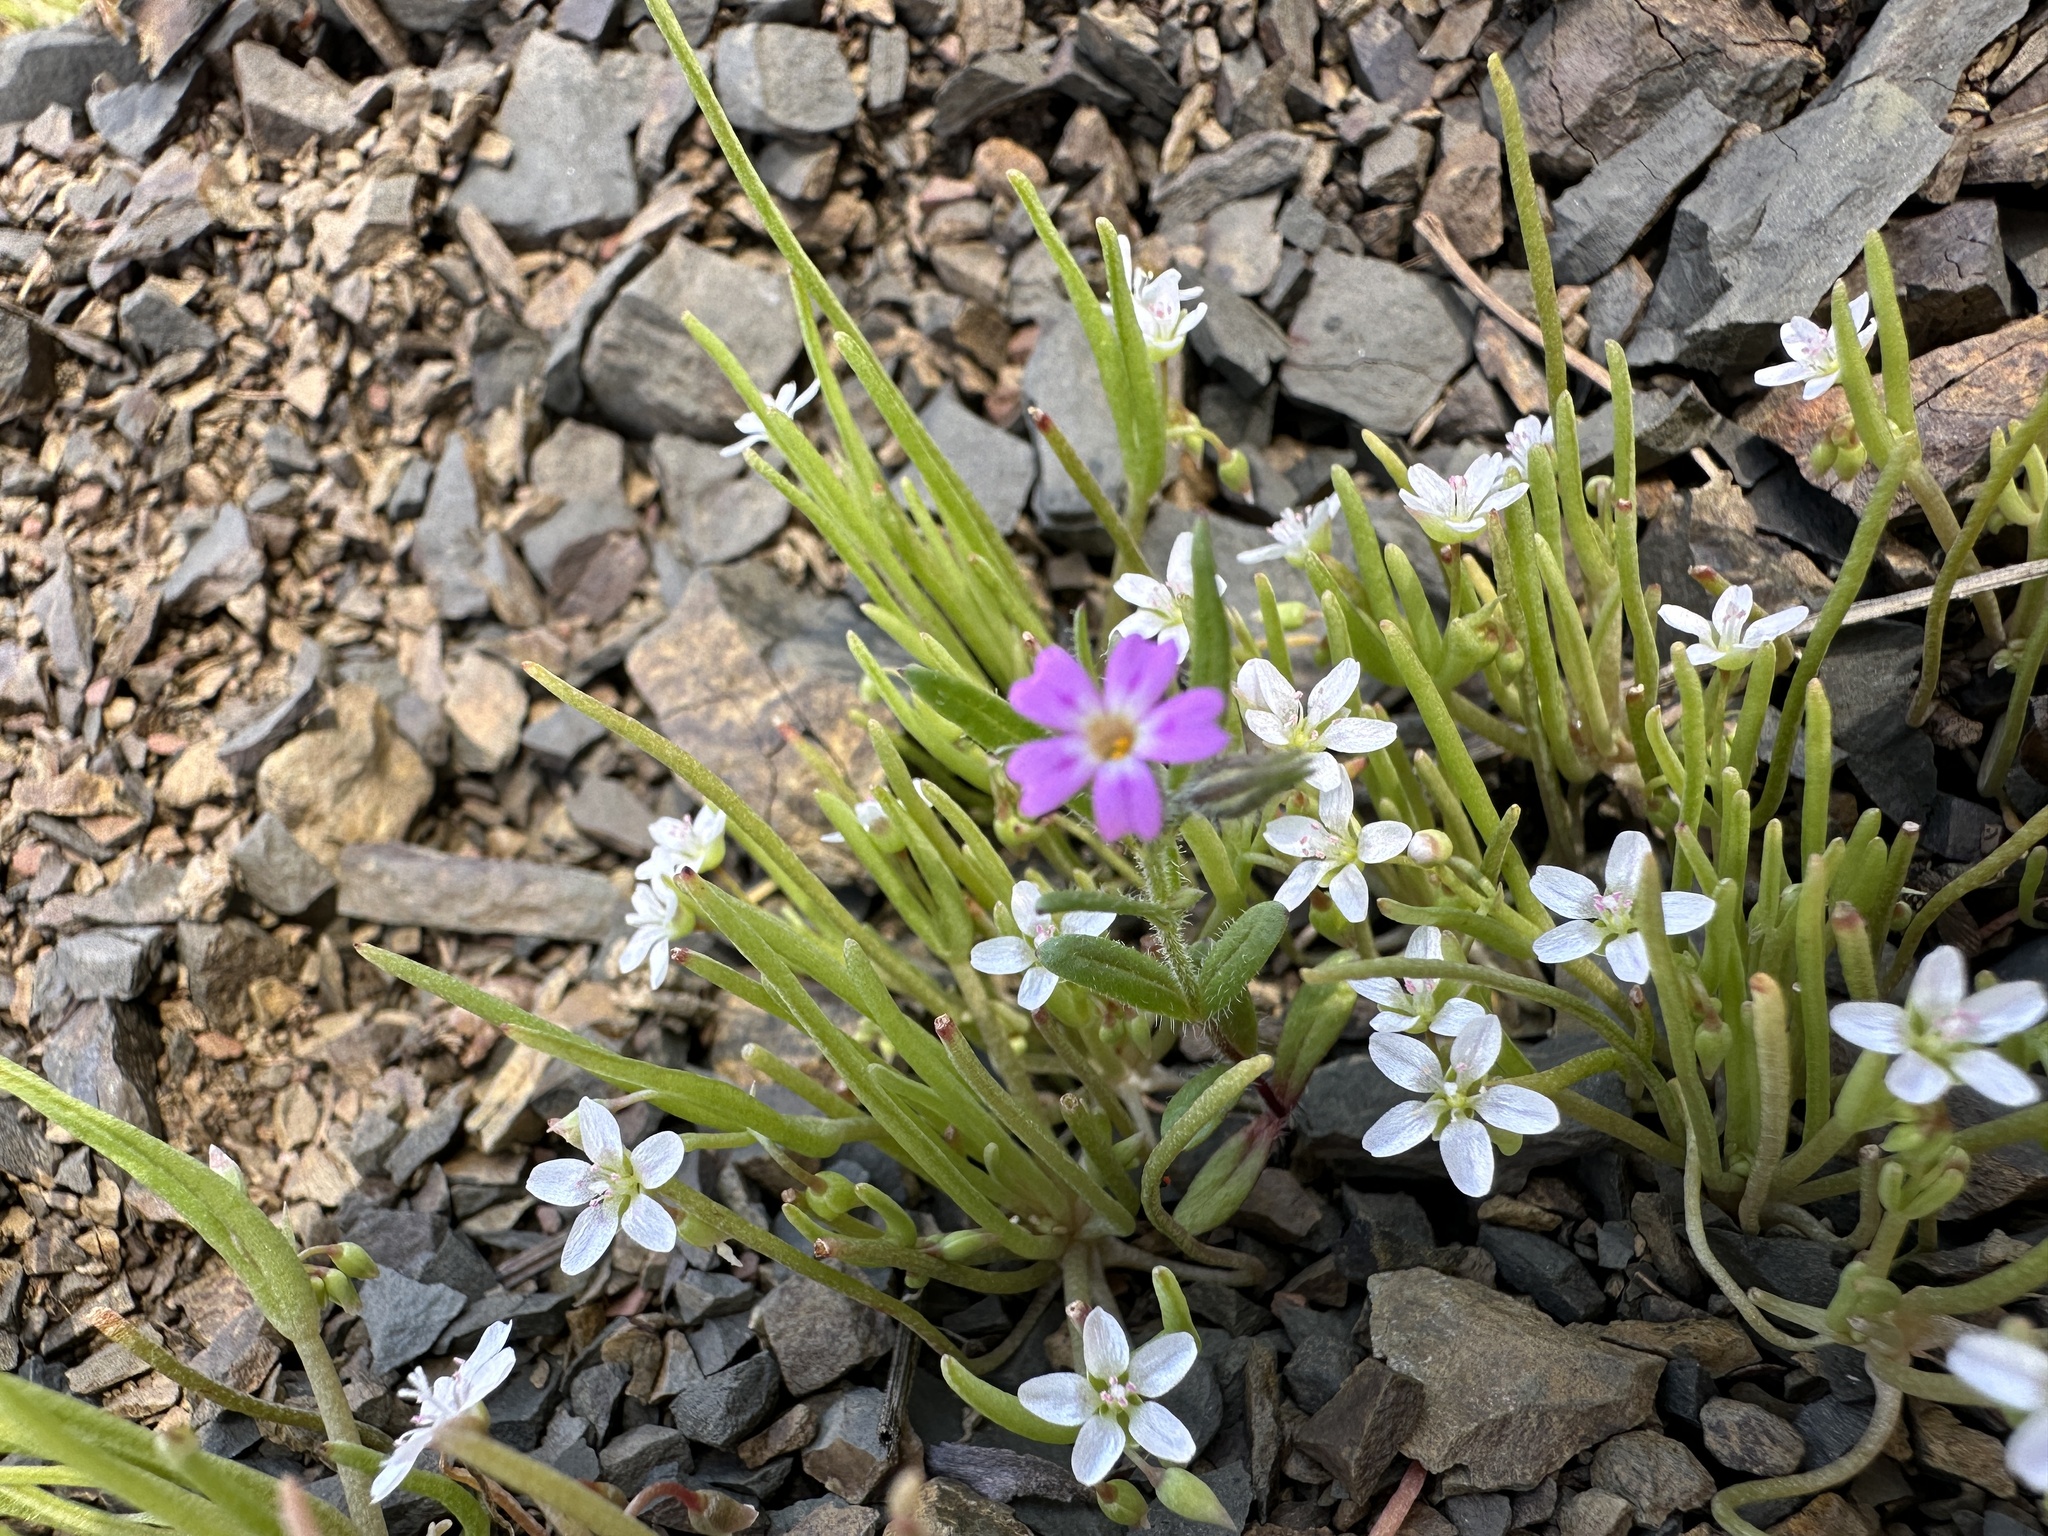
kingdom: Plantae
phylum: Tracheophyta
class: Magnoliopsida
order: Ericales
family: Polemoniaceae
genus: Phlox
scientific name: Phlox gracilis
